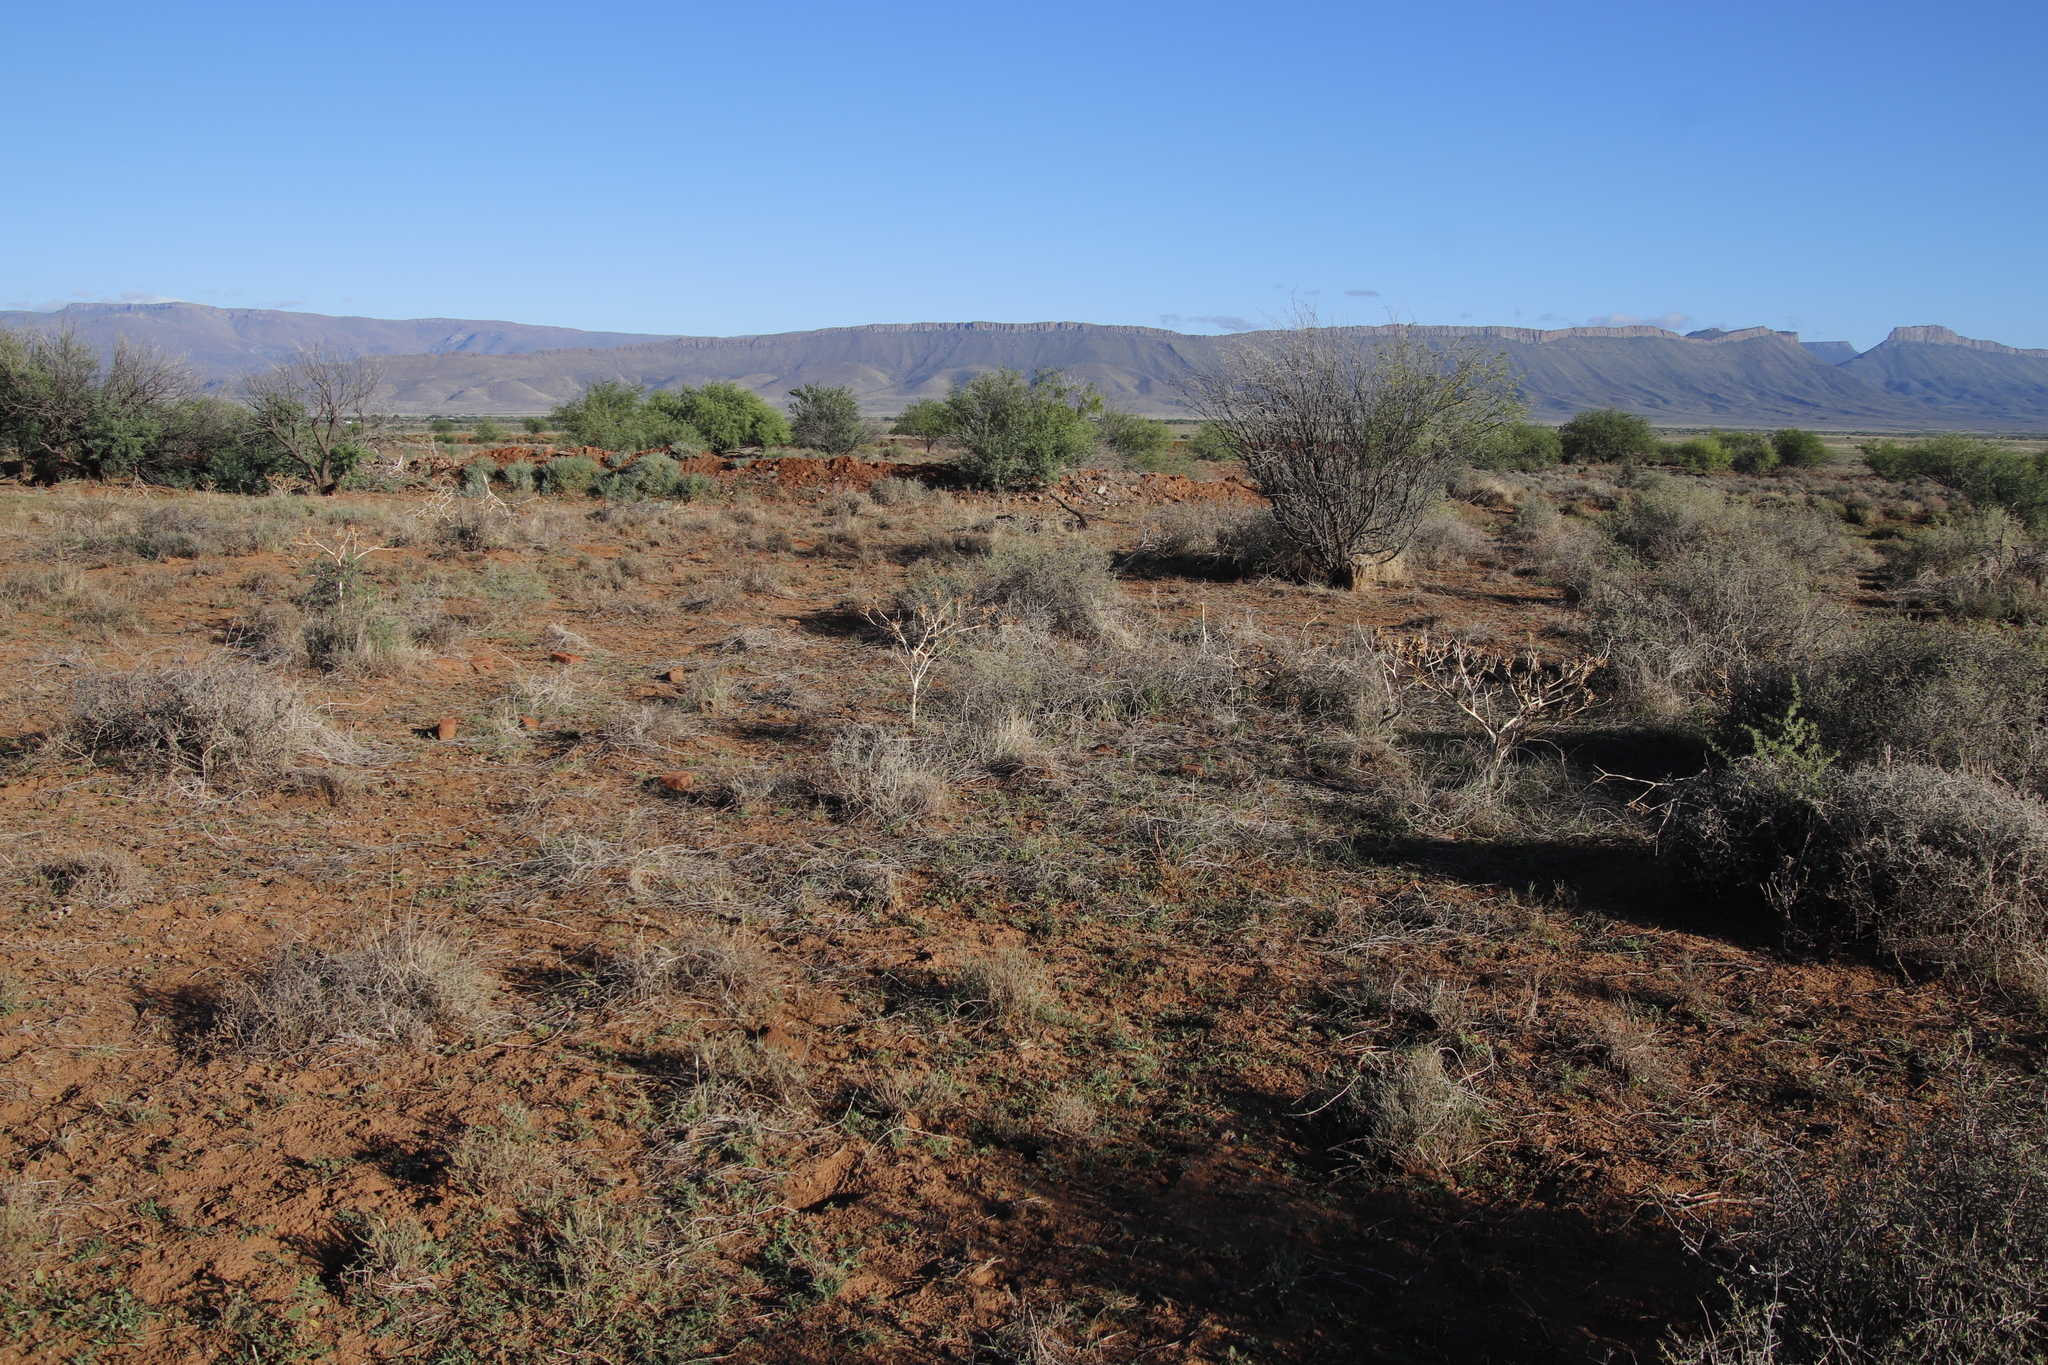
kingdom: Plantae
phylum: Tracheophyta
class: Magnoliopsida
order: Solanales
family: Solanaceae
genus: Datura
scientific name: Datura ferox
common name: Angel's-trumpets
